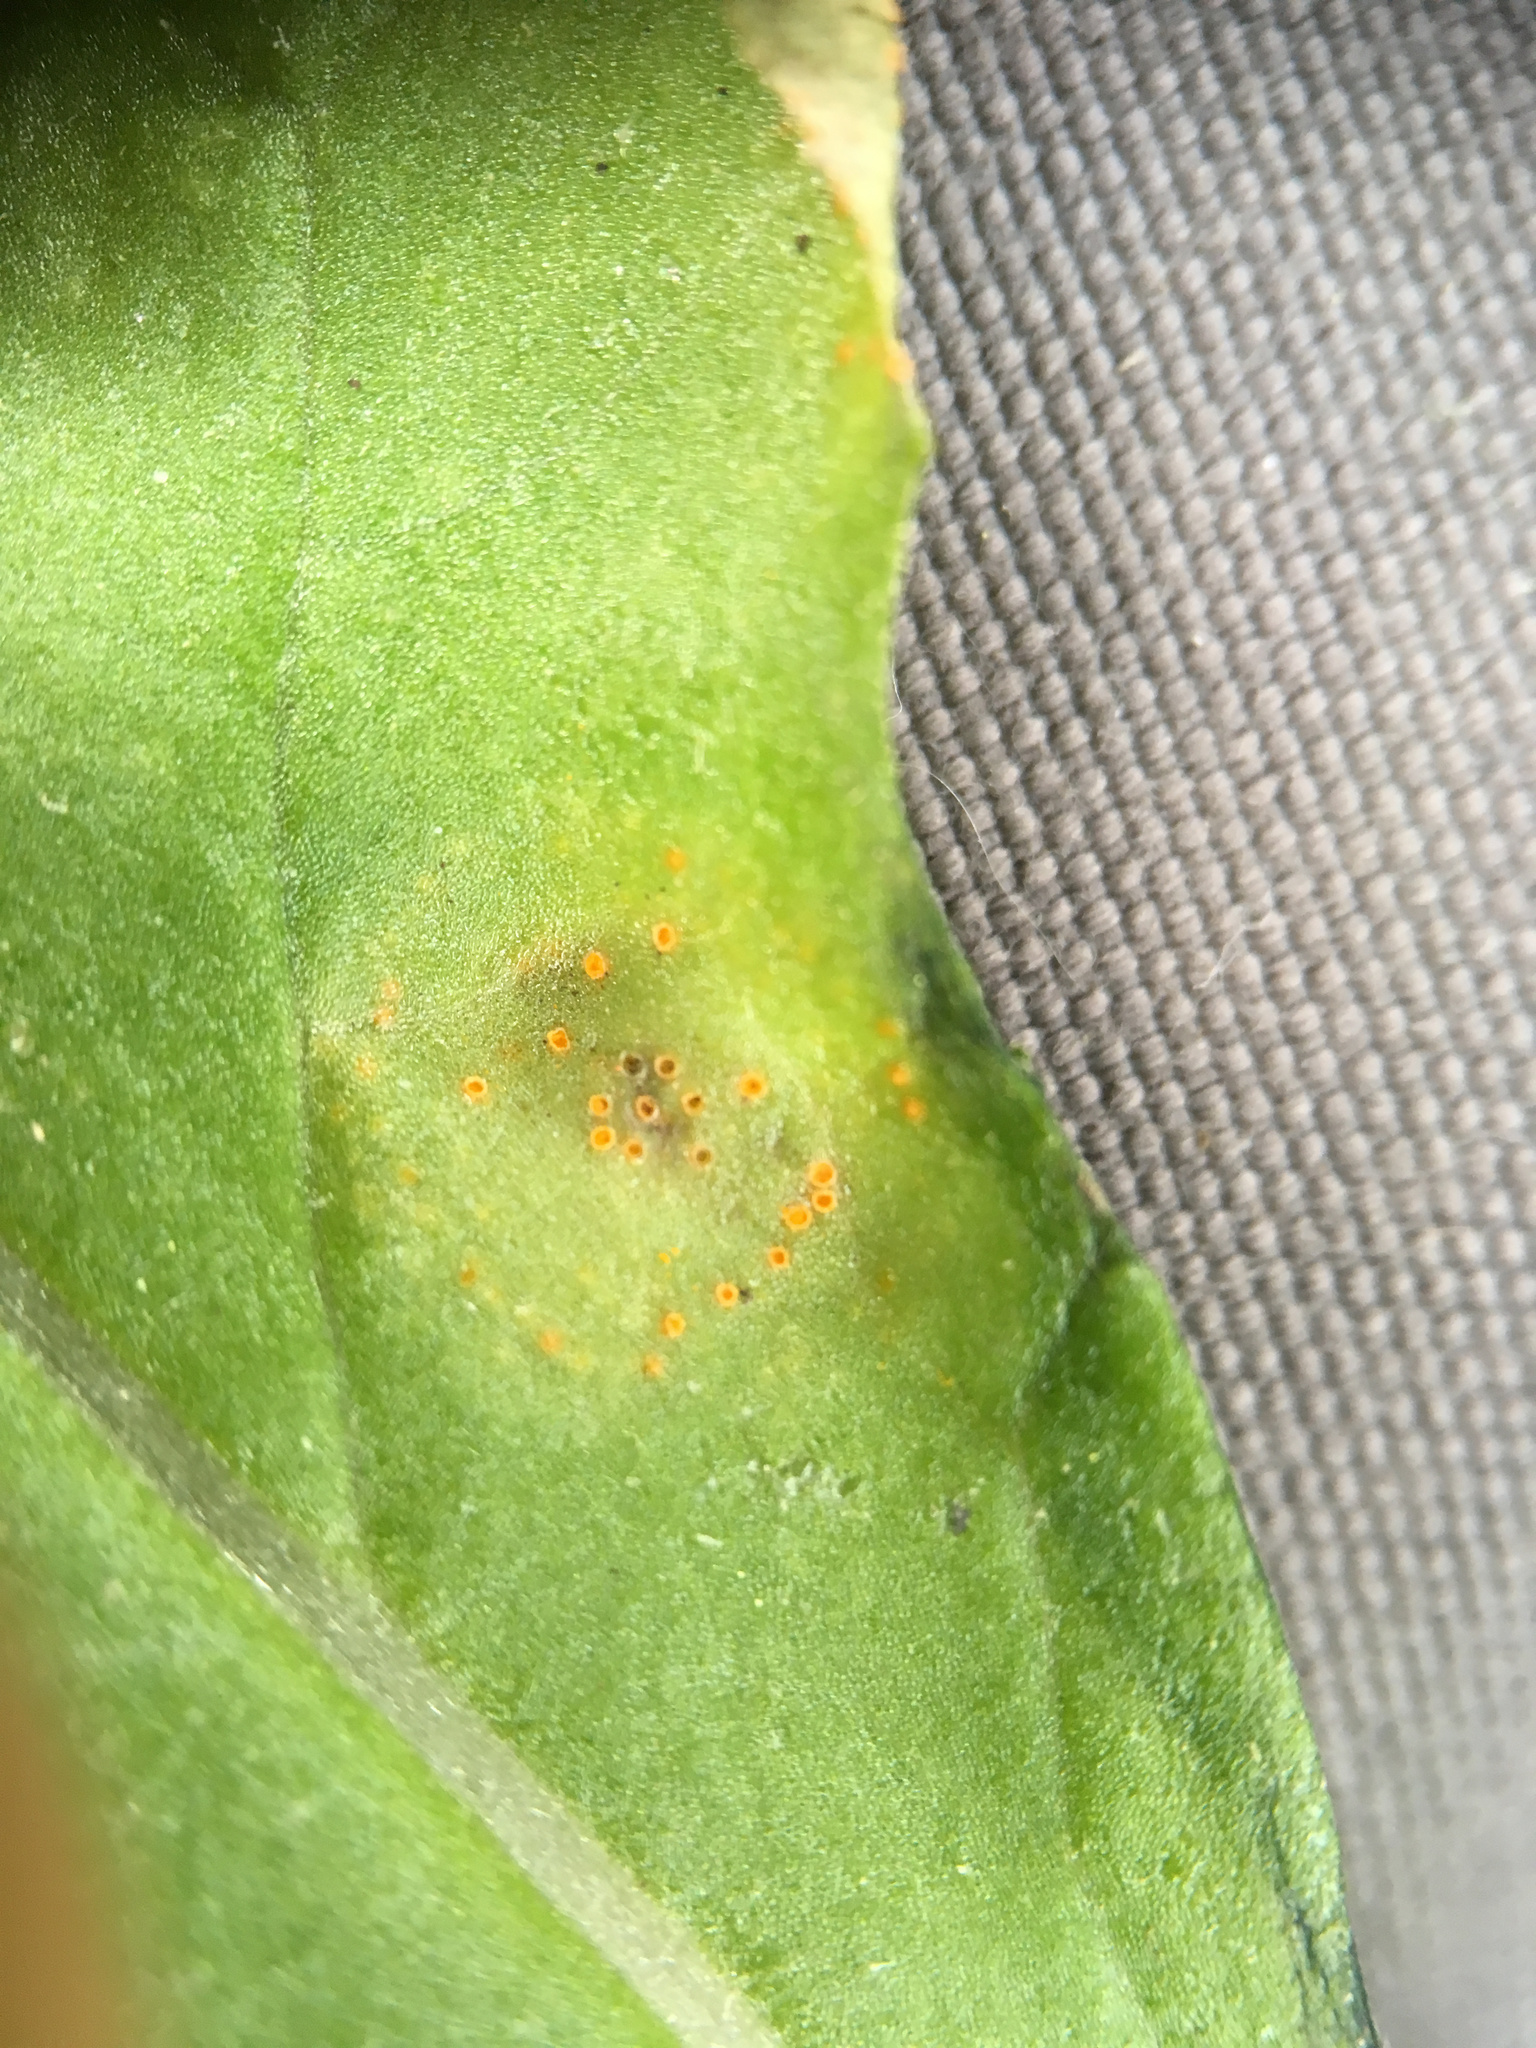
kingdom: Fungi
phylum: Basidiomycota
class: Pucciniomycetes
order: Pucciniales
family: Pucciniaceae
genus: Puccinia
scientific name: Puccinia lagenophorae
